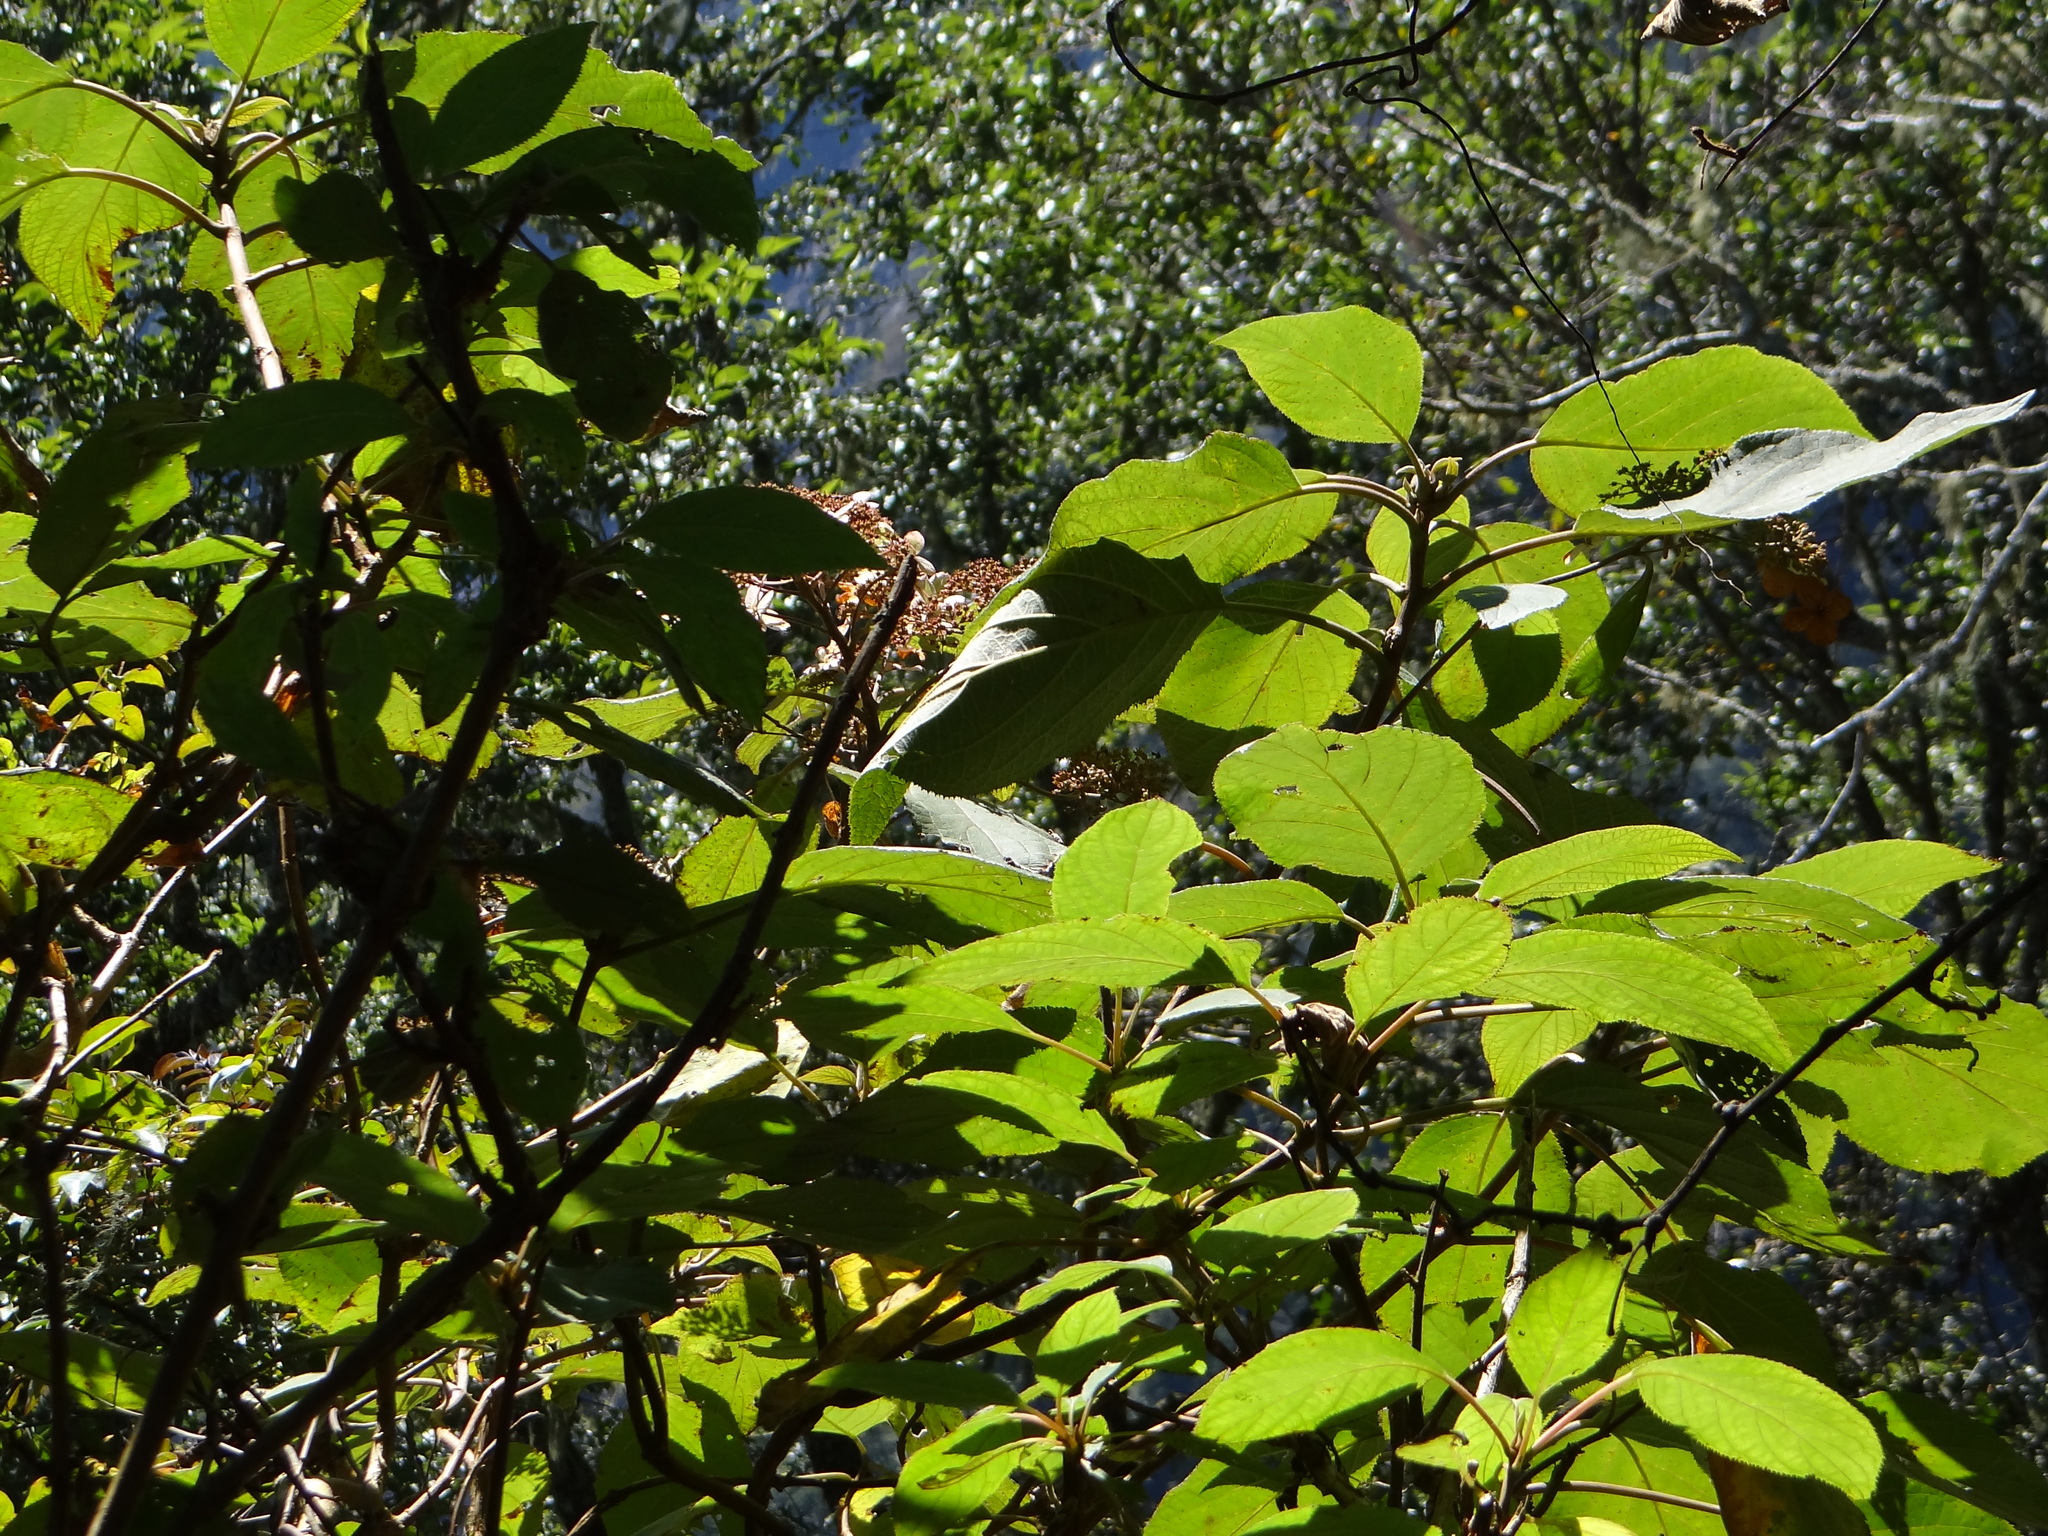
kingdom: Plantae
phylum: Tracheophyta
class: Magnoliopsida
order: Cornales
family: Hydrangeaceae
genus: Hydrangea
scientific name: Hydrangea aspera
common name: Rough-leaf hydrangea
